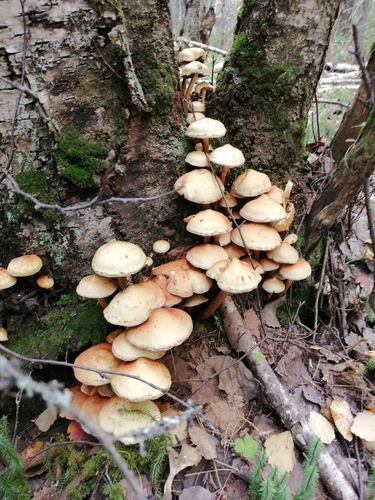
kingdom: Fungi
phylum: Basidiomycota
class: Agaricomycetes
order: Agaricales
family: Strophariaceae
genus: Kuehneromyces
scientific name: Kuehneromyces mutabilis
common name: Sheathed woodtuft
